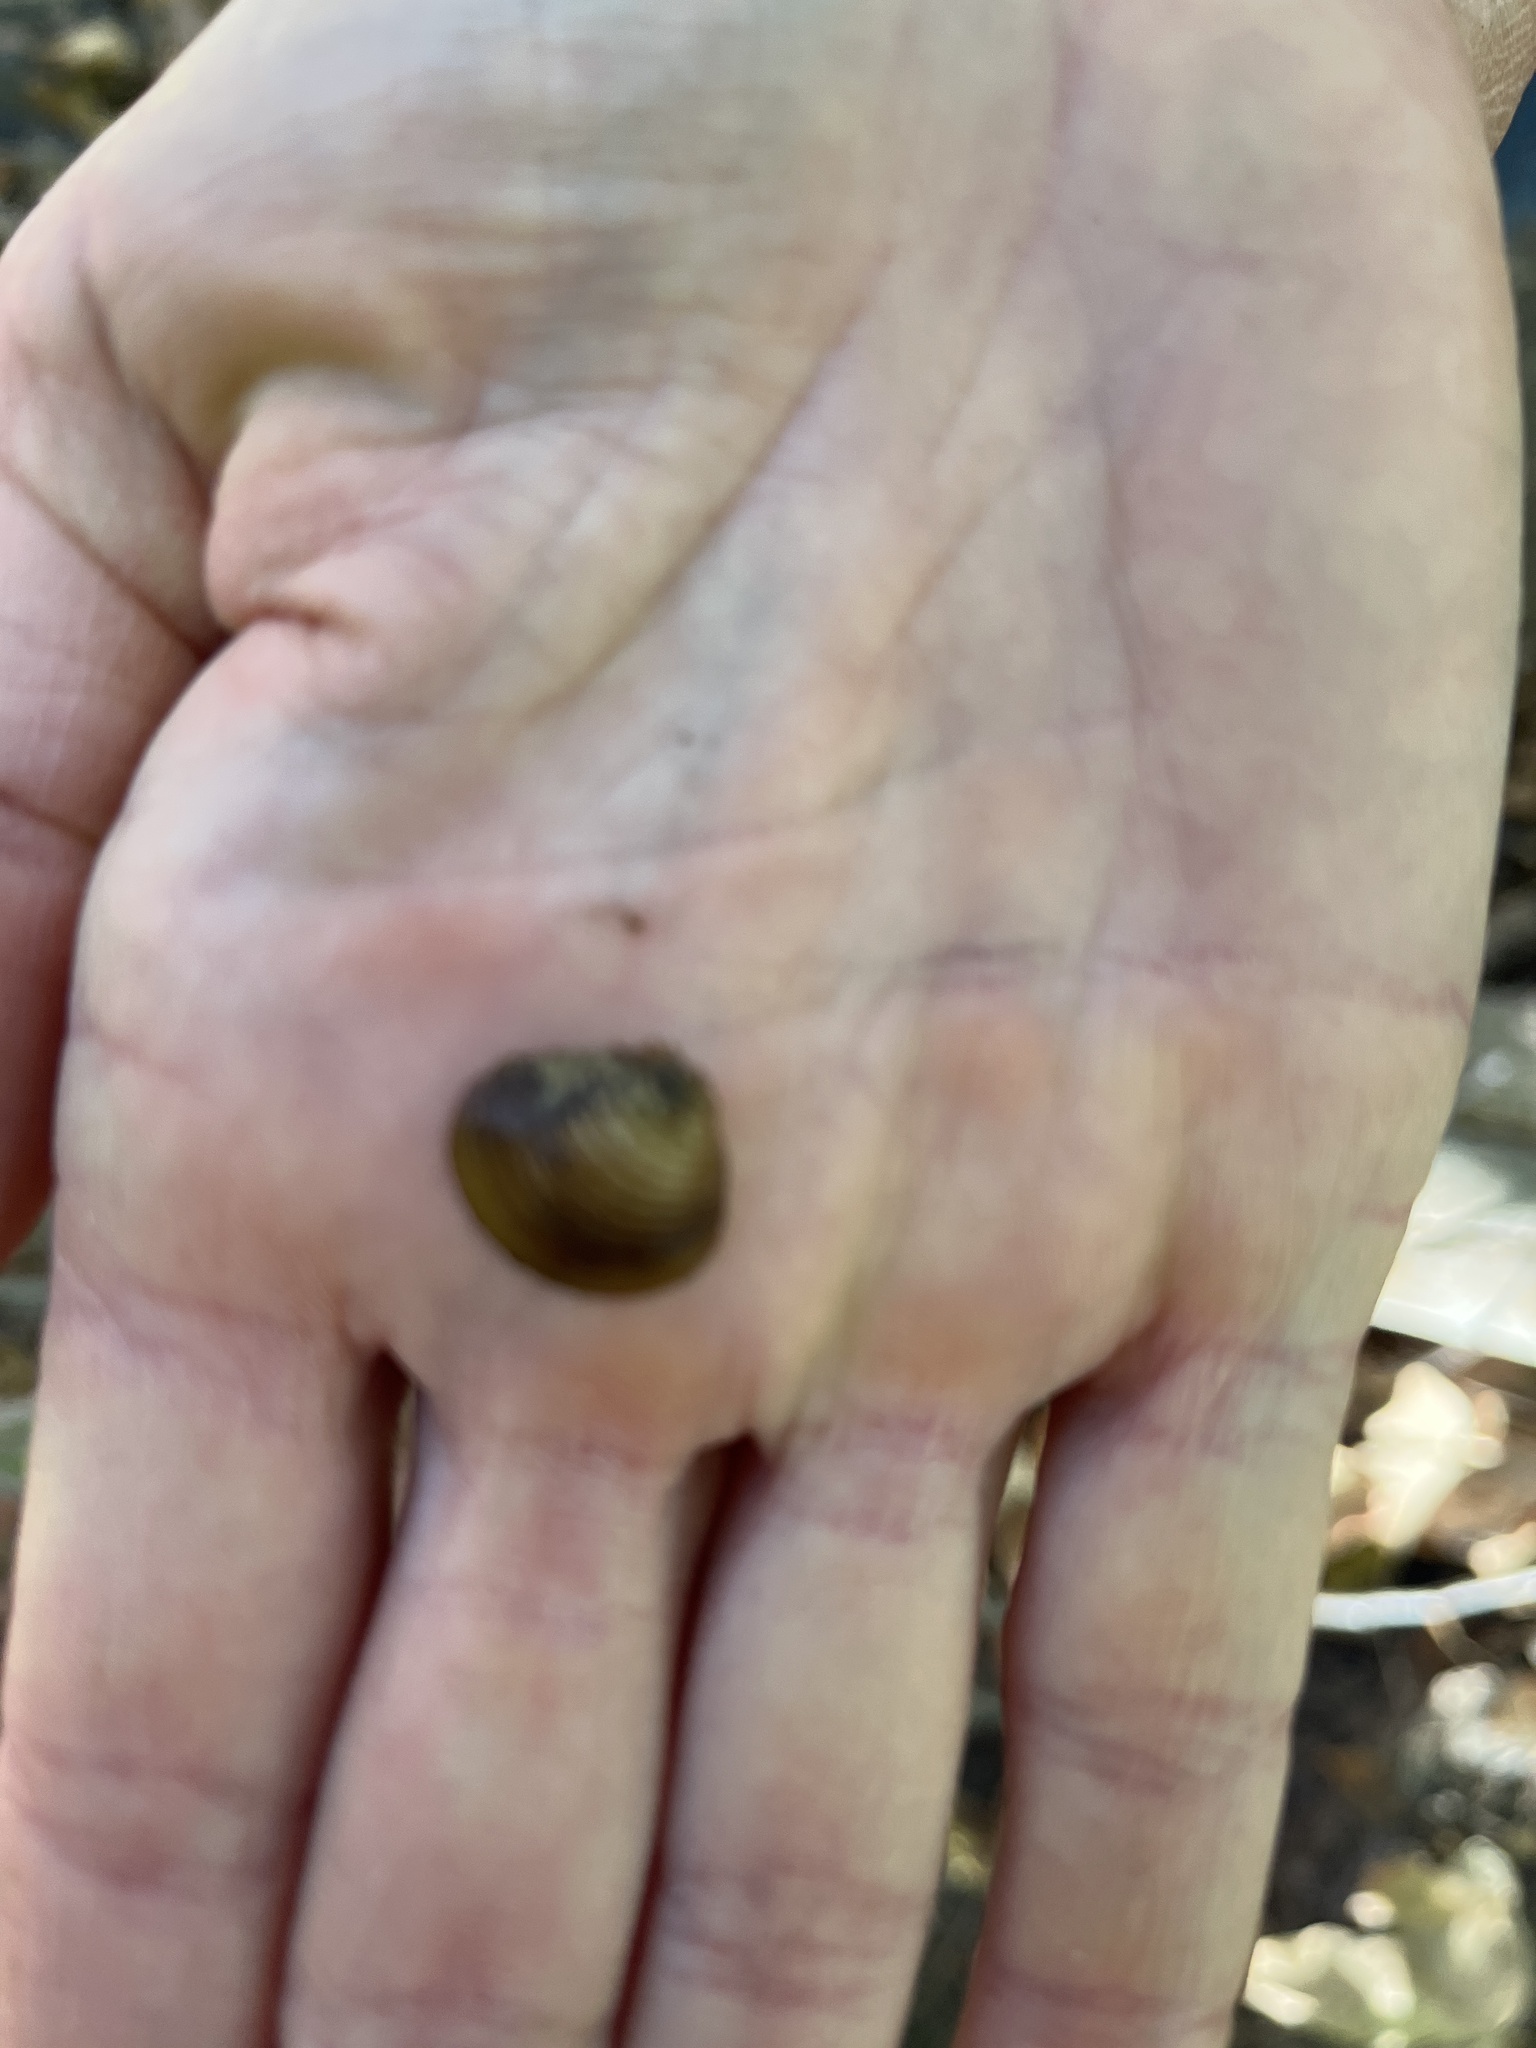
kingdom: Animalia
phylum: Mollusca
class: Bivalvia
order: Venerida
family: Cyrenidae
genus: Corbicula
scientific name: Corbicula fluminea
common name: Asian clam
